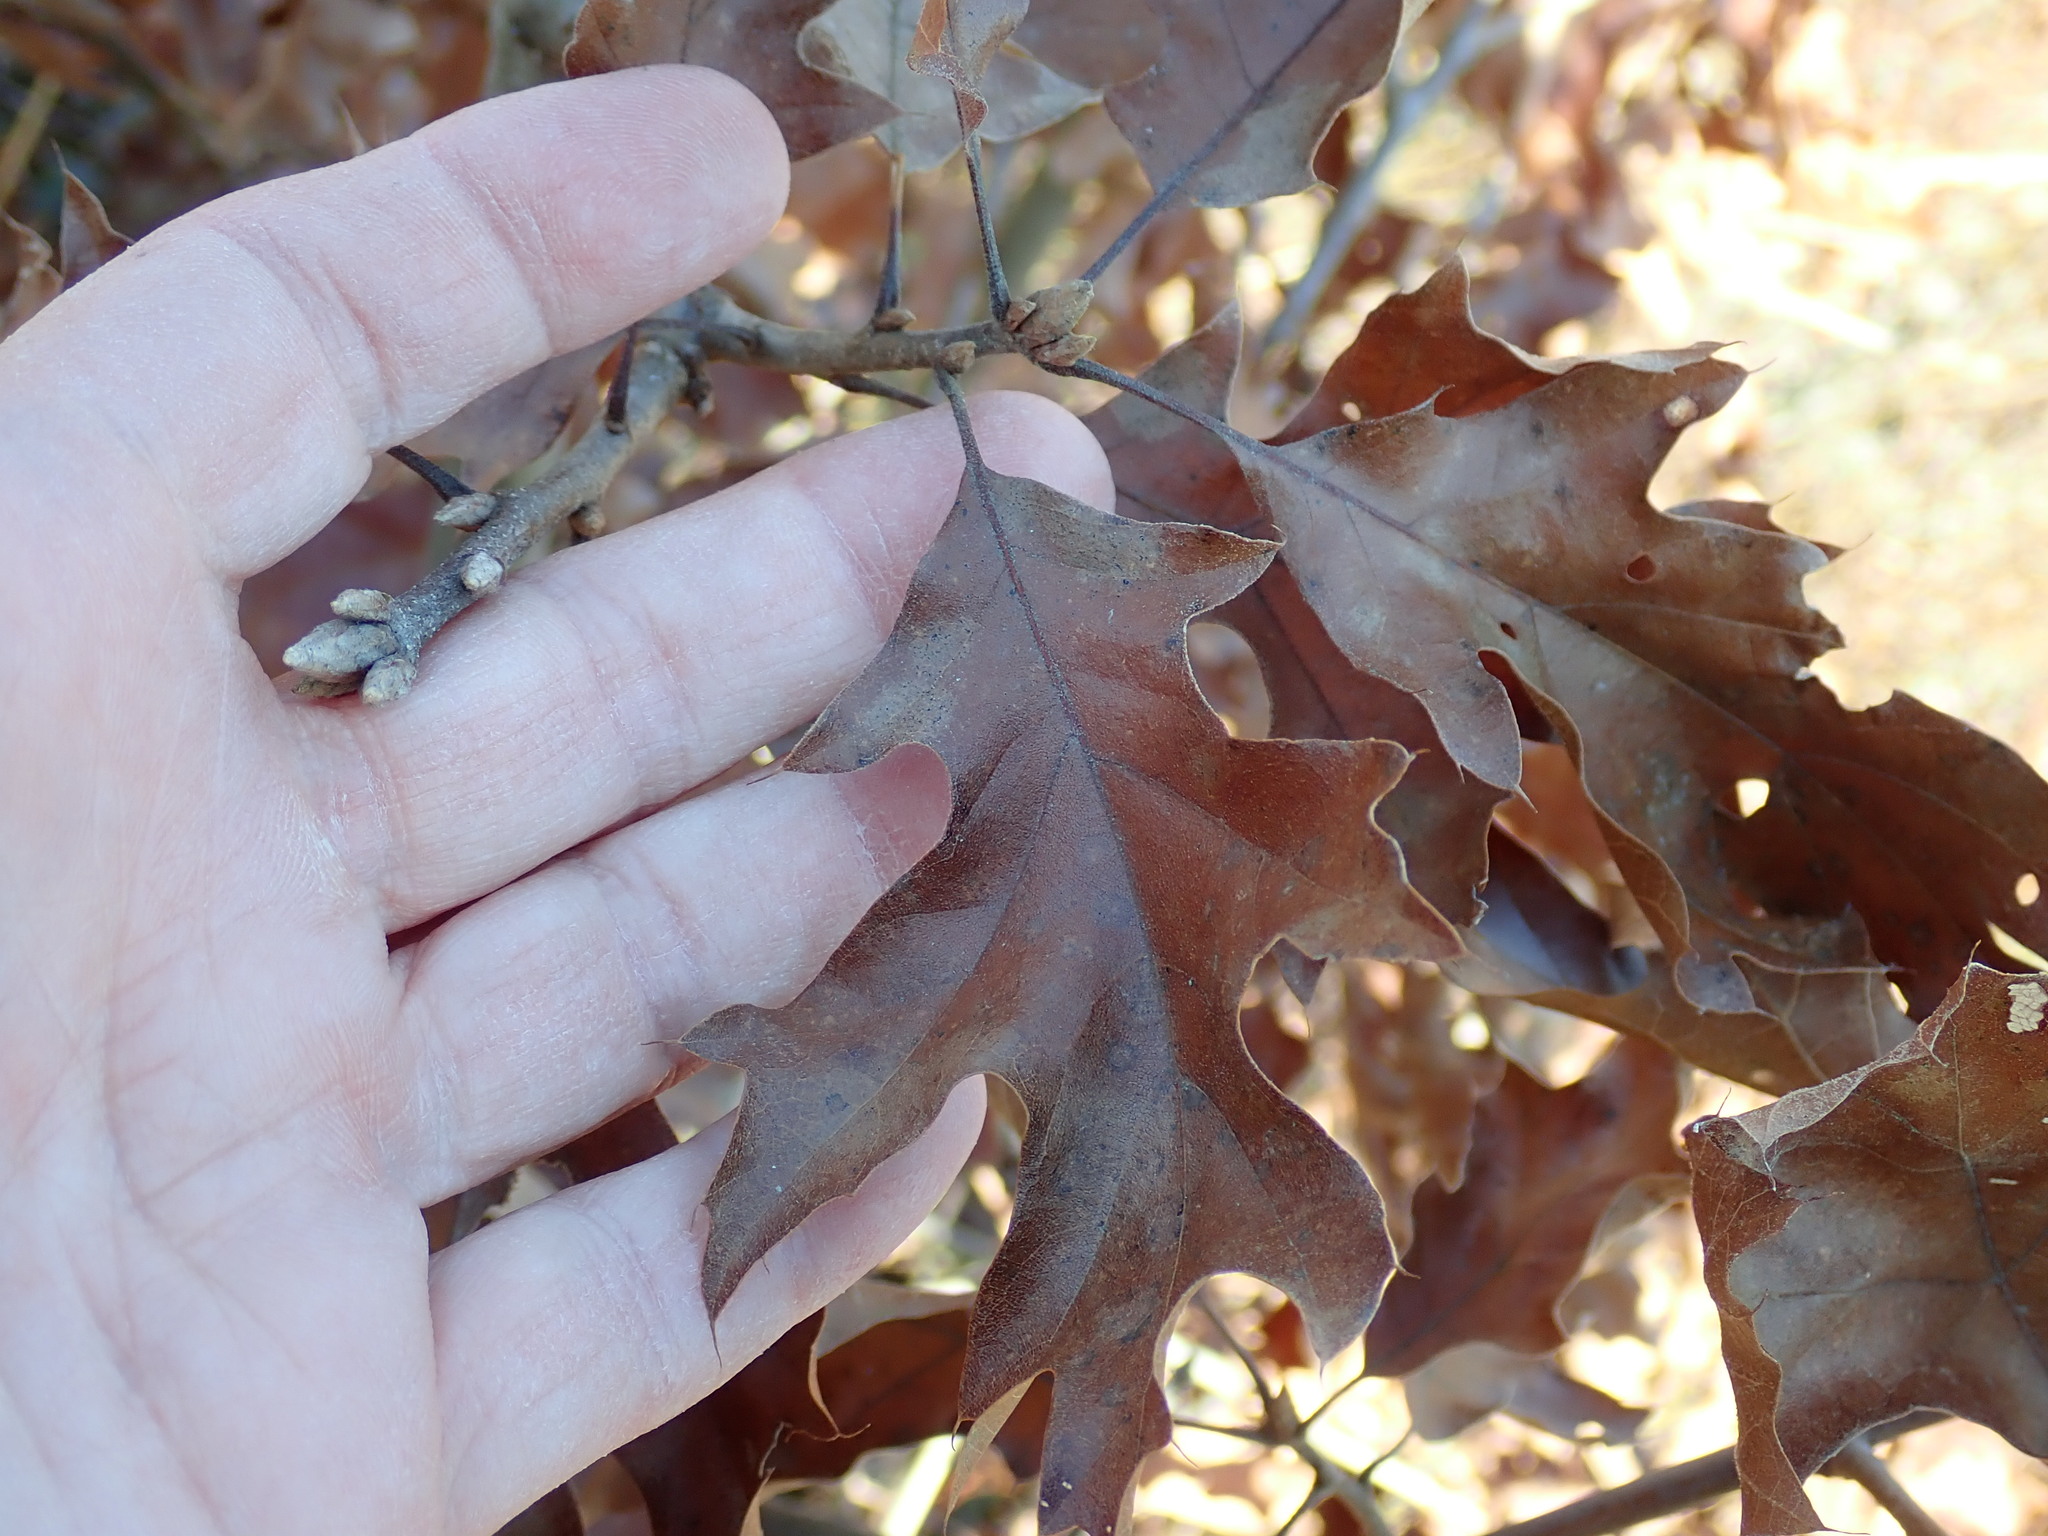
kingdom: Plantae
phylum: Tracheophyta
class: Magnoliopsida
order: Fagales
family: Fagaceae
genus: Quercus
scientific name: Quercus velutina
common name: Black oak
